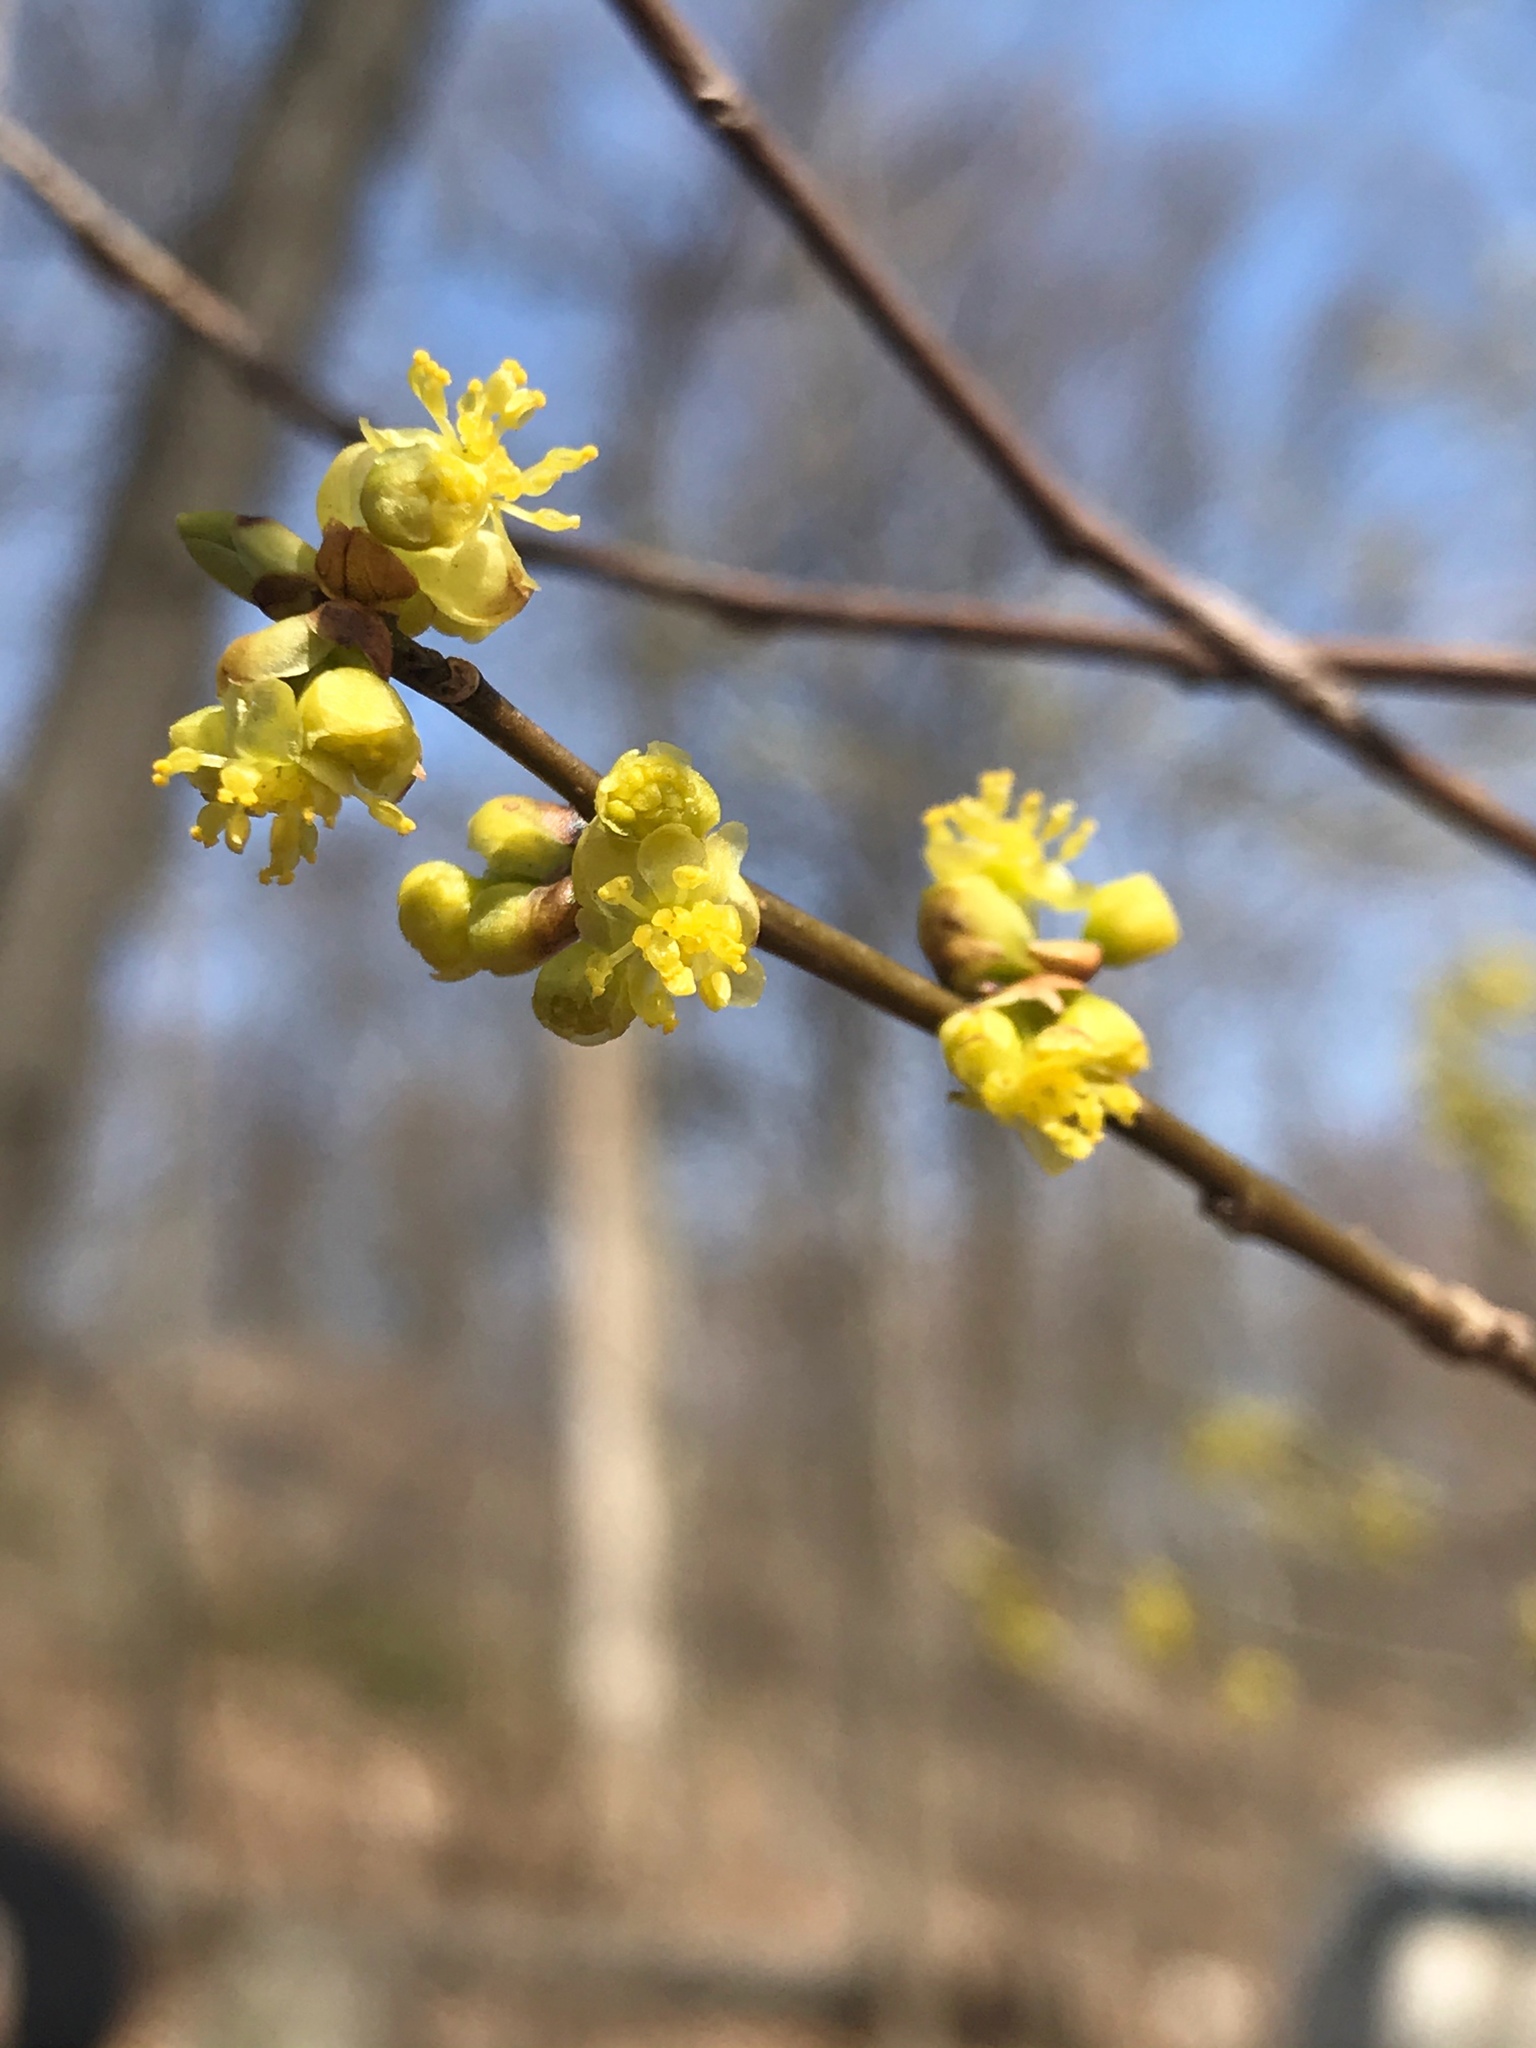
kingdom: Plantae
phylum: Tracheophyta
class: Magnoliopsida
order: Laurales
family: Lauraceae
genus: Lindera
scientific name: Lindera benzoin
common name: Spicebush
